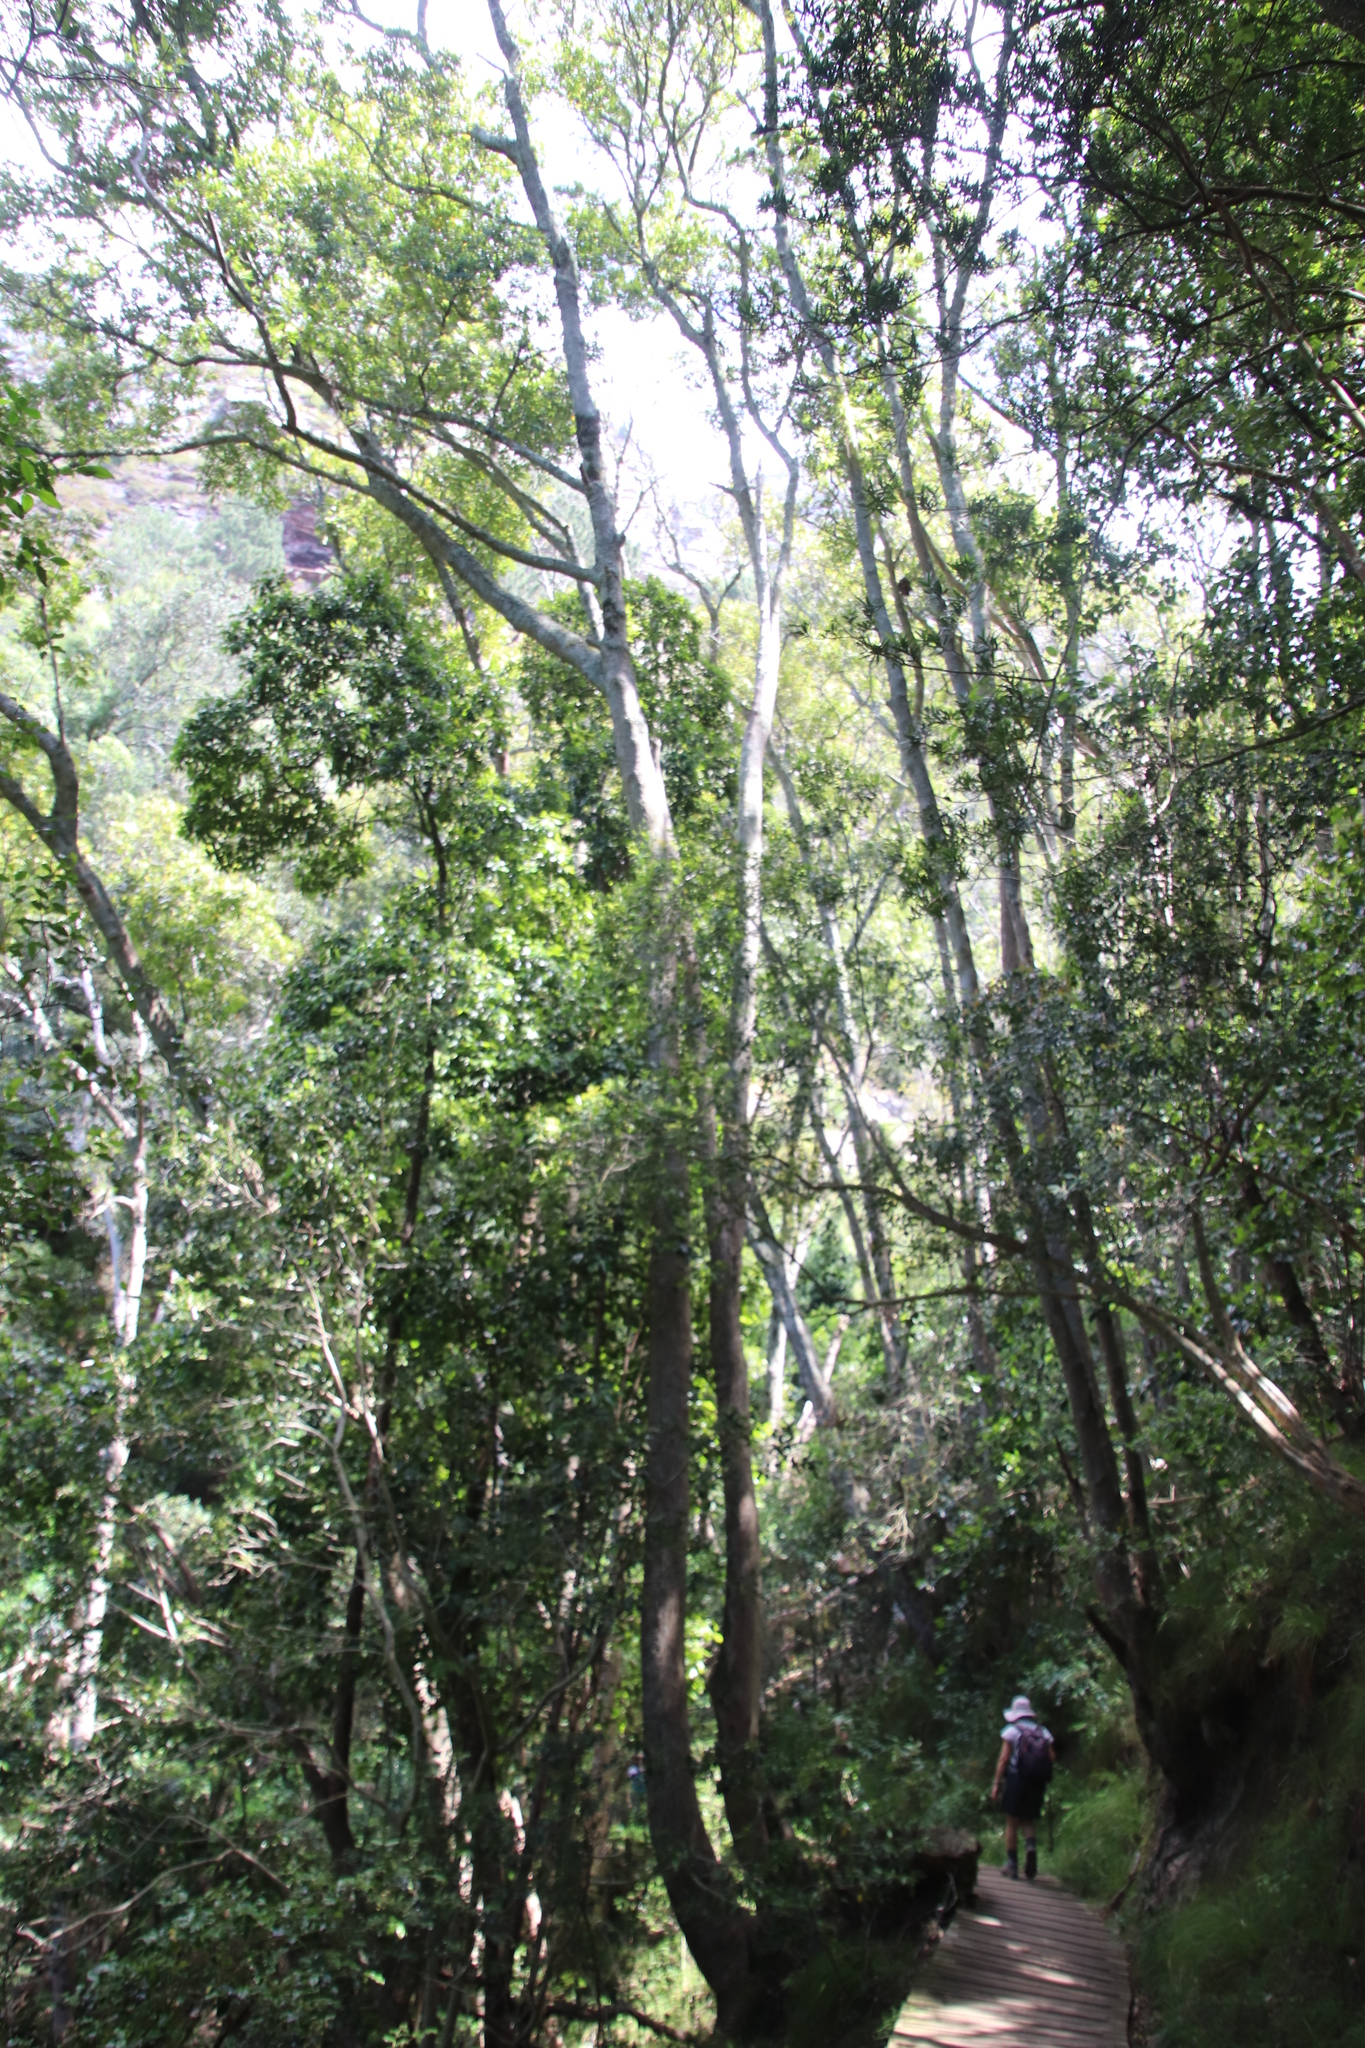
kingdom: Plantae
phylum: Tracheophyta
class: Magnoliopsida
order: Oxalidales
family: Cunoniaceae
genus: Cunonia
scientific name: Cunonia capensis
